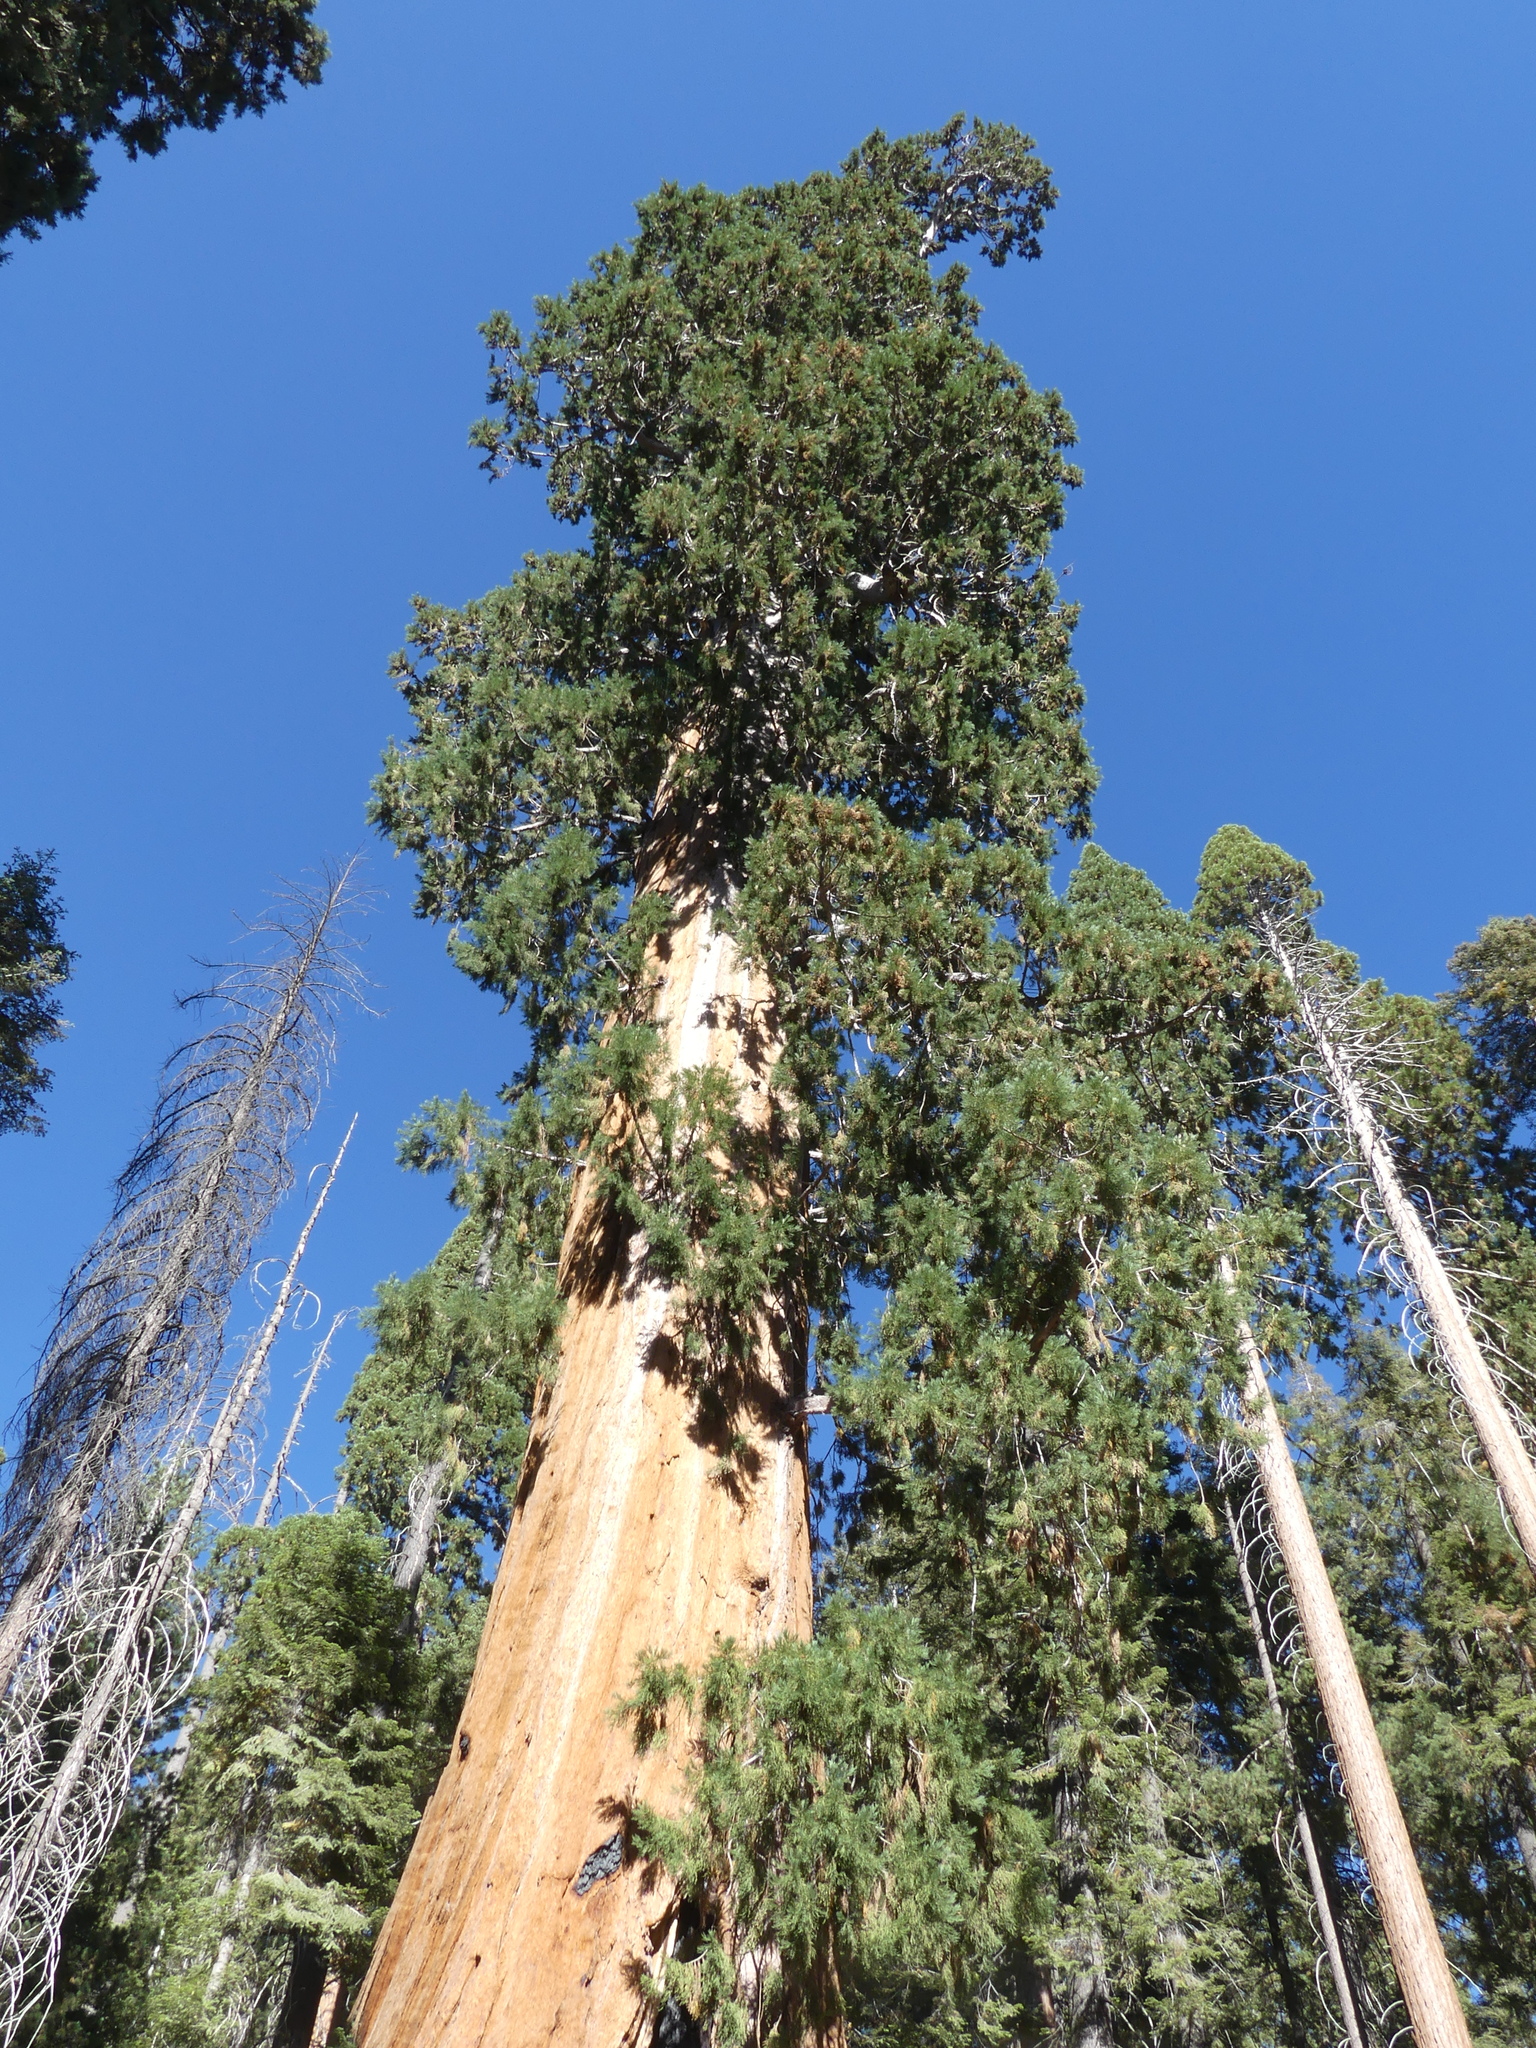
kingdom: Plantae
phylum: Tracheophyta
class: Pinopsida
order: Pinales
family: Cupressaceae
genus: Sequoiadendron
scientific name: Sequoiadendron giganteum
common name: Wellingtonia
